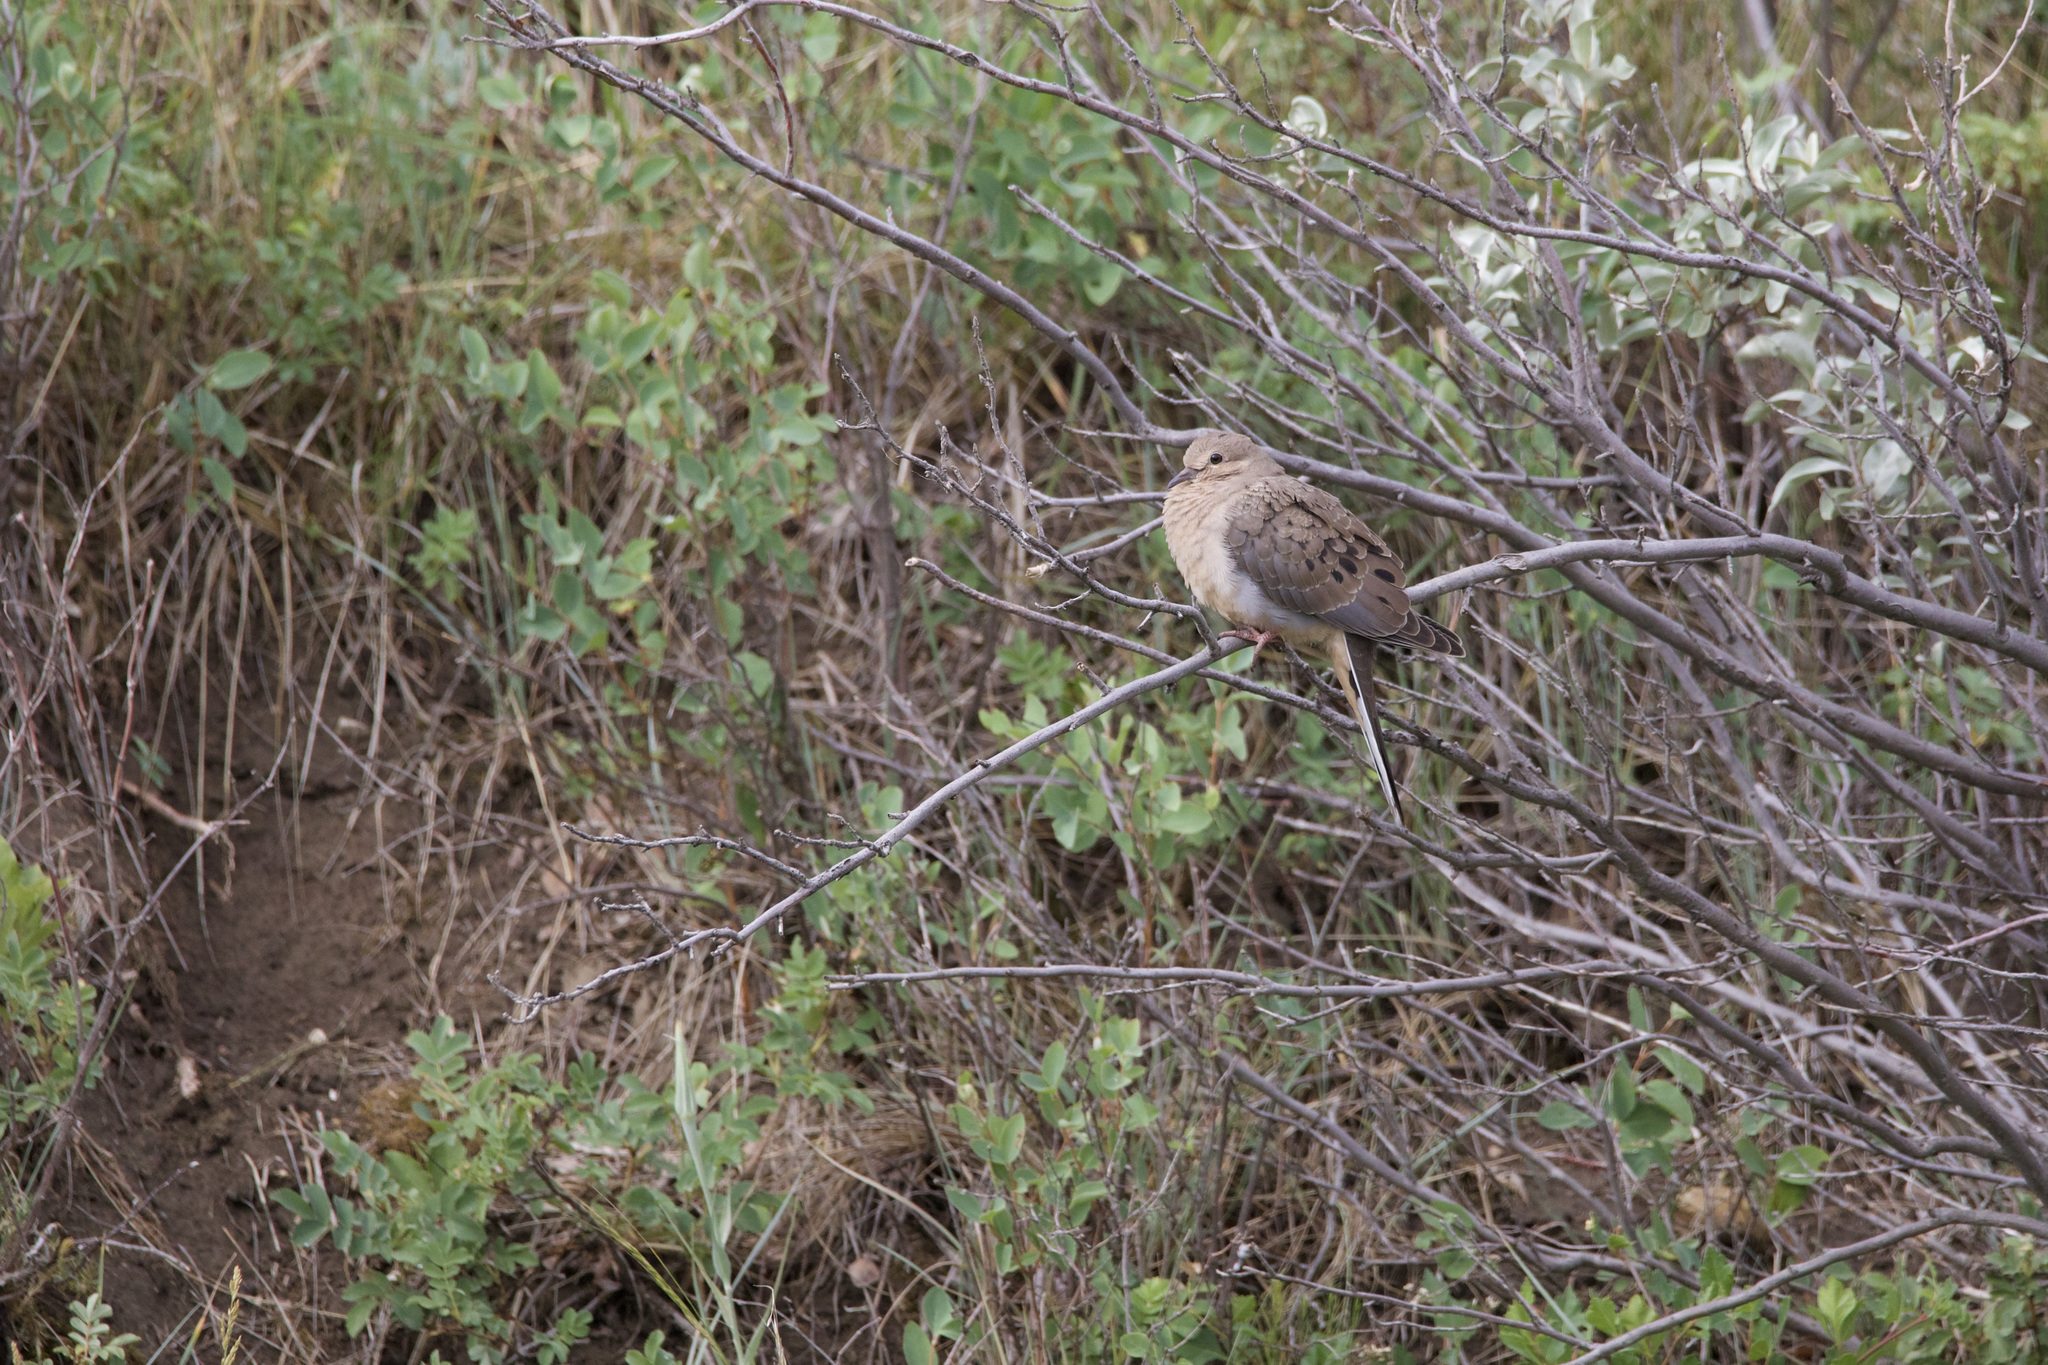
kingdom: Animalia
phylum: Chordata
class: Aves
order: Columbiformes
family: Columbidae
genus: Zenaida
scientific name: Zenaida macroura
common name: Mourning dove
